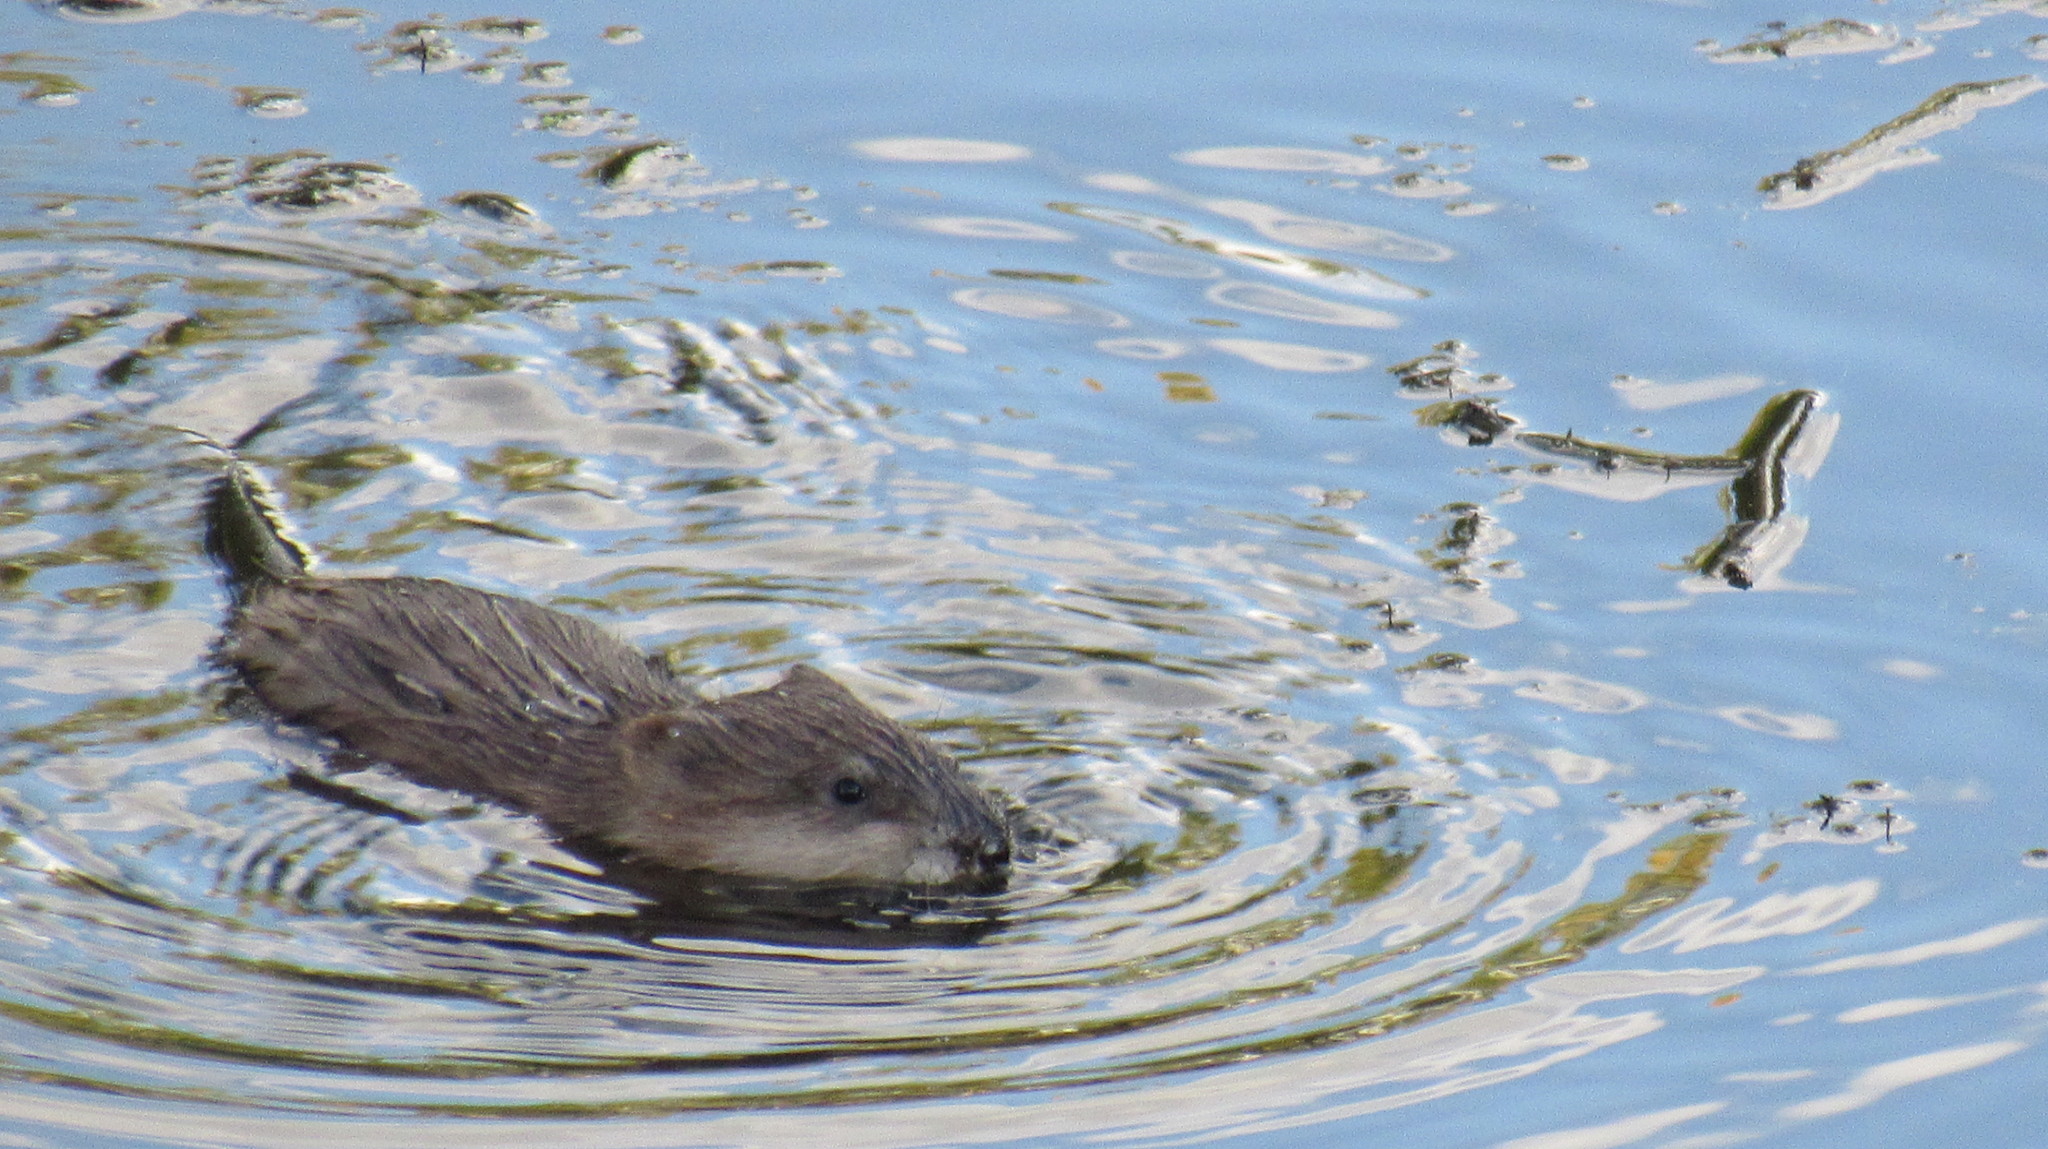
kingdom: Animalia
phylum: Chordata
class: Mammalia
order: Rodentia
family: Cricetidae
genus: Ondatra
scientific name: Ondatra zibethicus
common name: Muskrat
